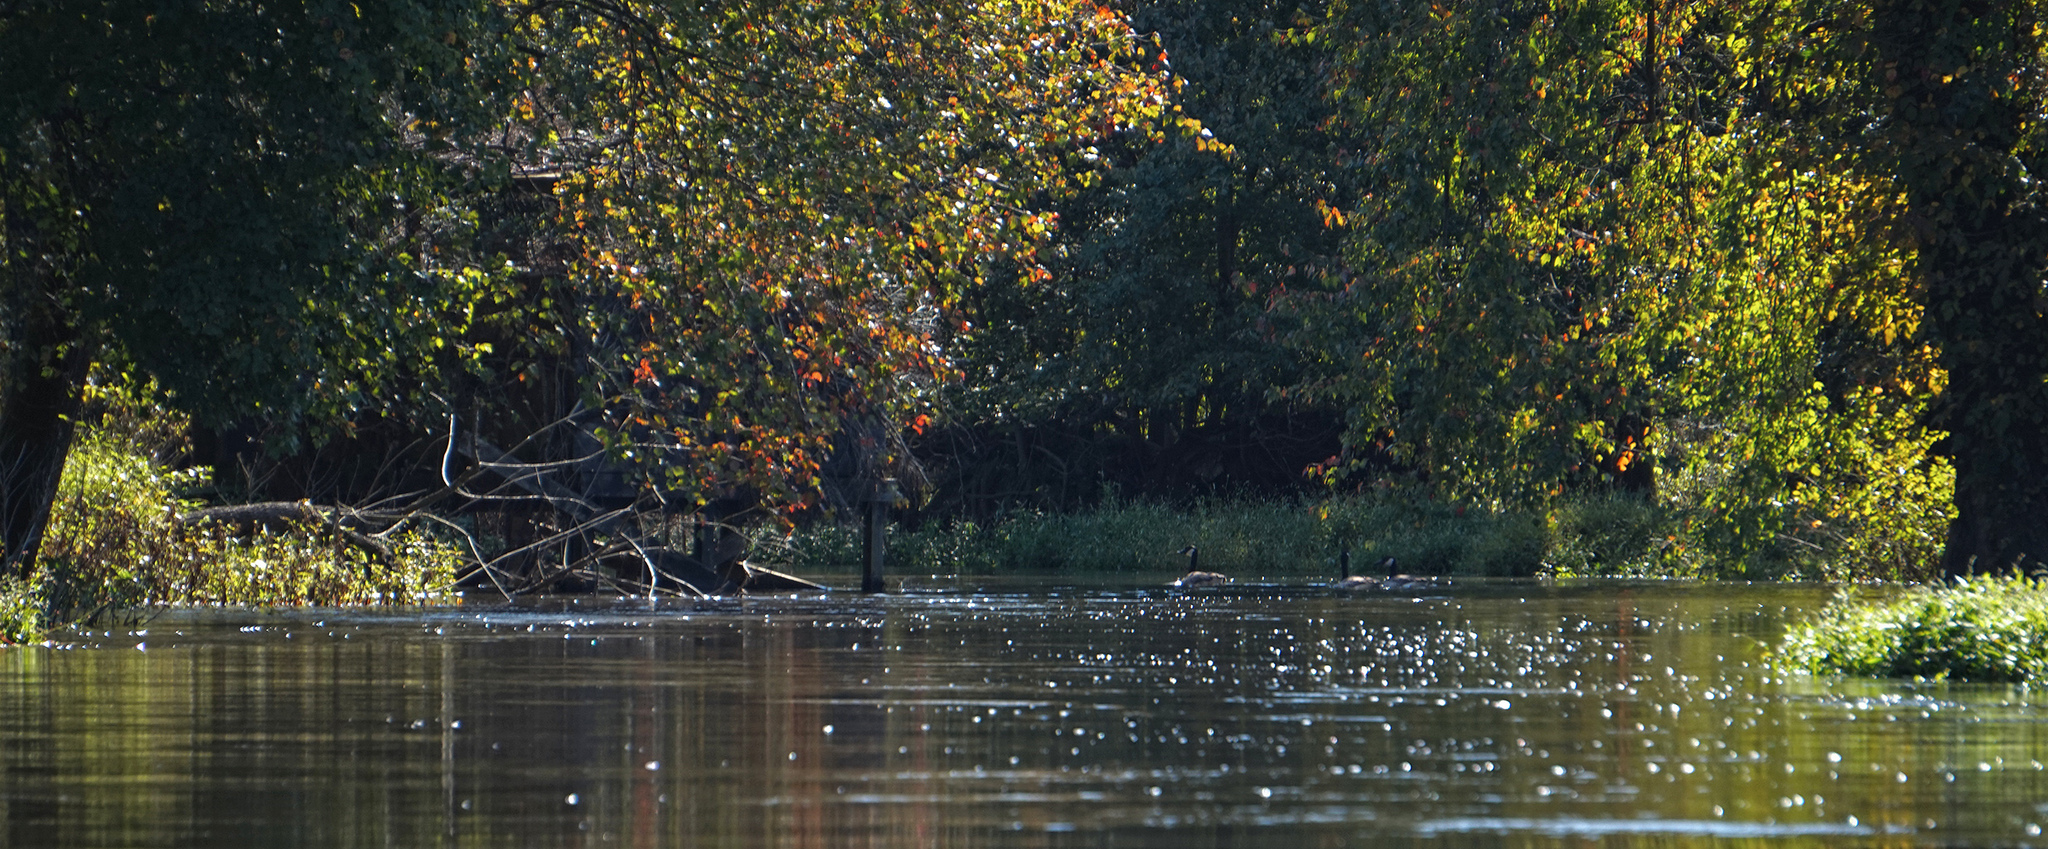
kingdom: Animalia
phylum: Chordata
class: Aves
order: Anseriformes
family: Anatidae
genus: Branta
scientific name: Branta canadensis
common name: Canada goose
